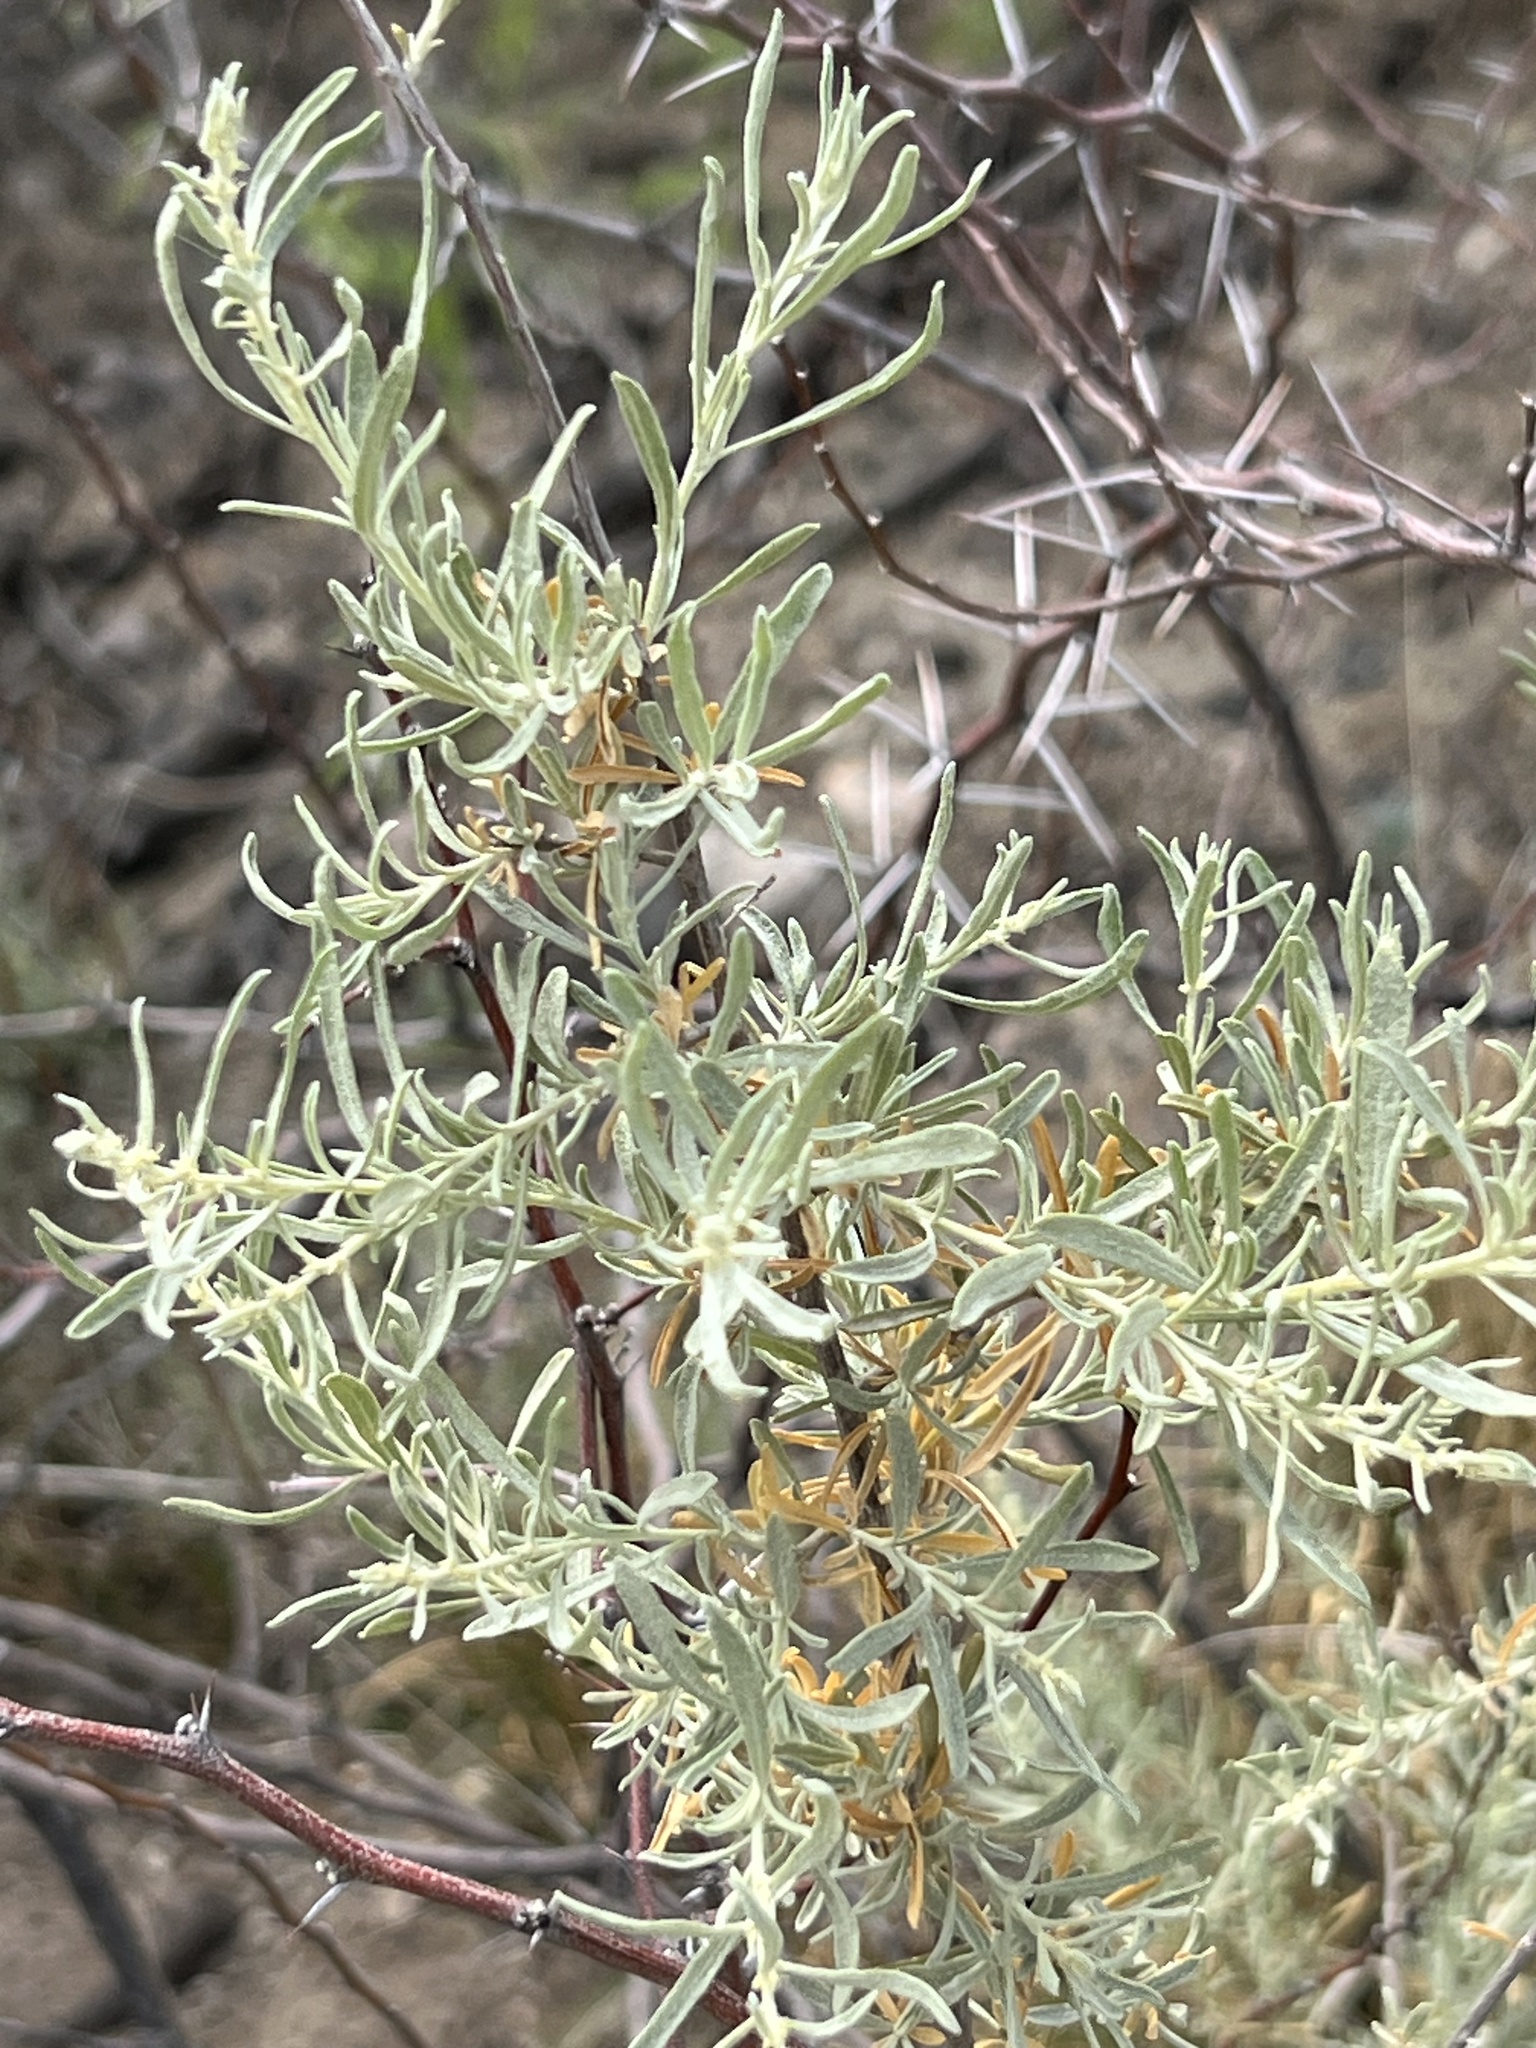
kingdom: Plantae
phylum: Tracheophyta
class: Magnoliopsida
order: Caryophyllales
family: Amaranthaceae
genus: Atriplex
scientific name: Atriplex canescens
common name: Four-wing saltbush
